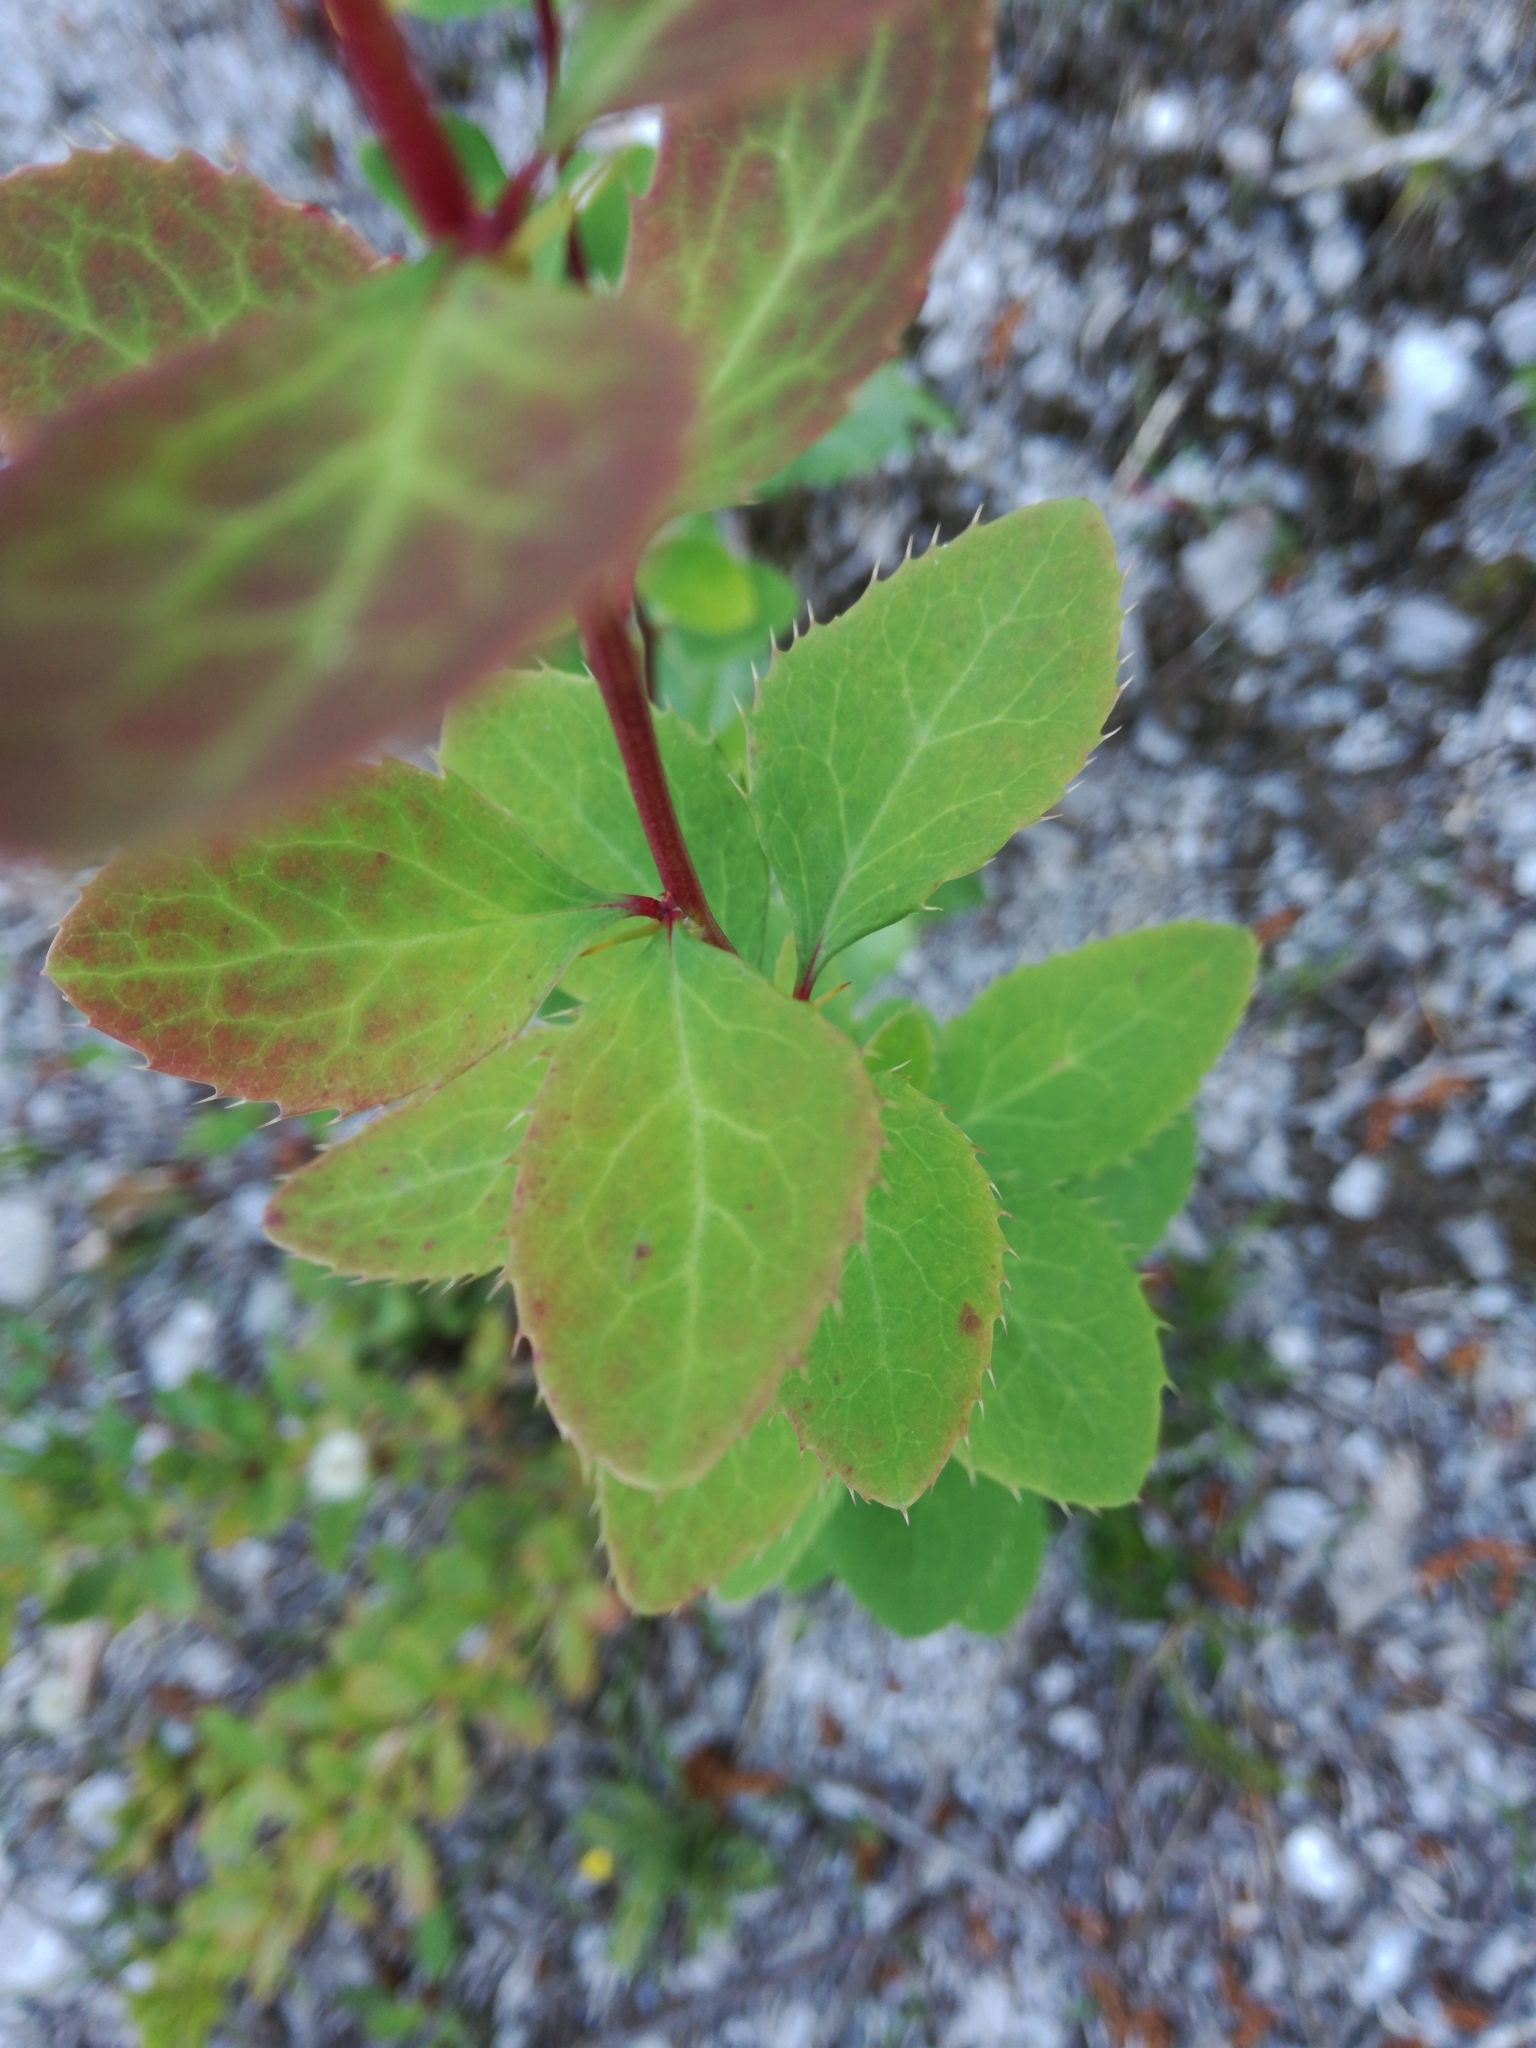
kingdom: Plantae
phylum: Tracheophyta
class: Magnoliopsida
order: Ranunculales
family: Berberidaceae
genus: Berberis
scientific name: Berberis vulgaris
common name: Barberry
